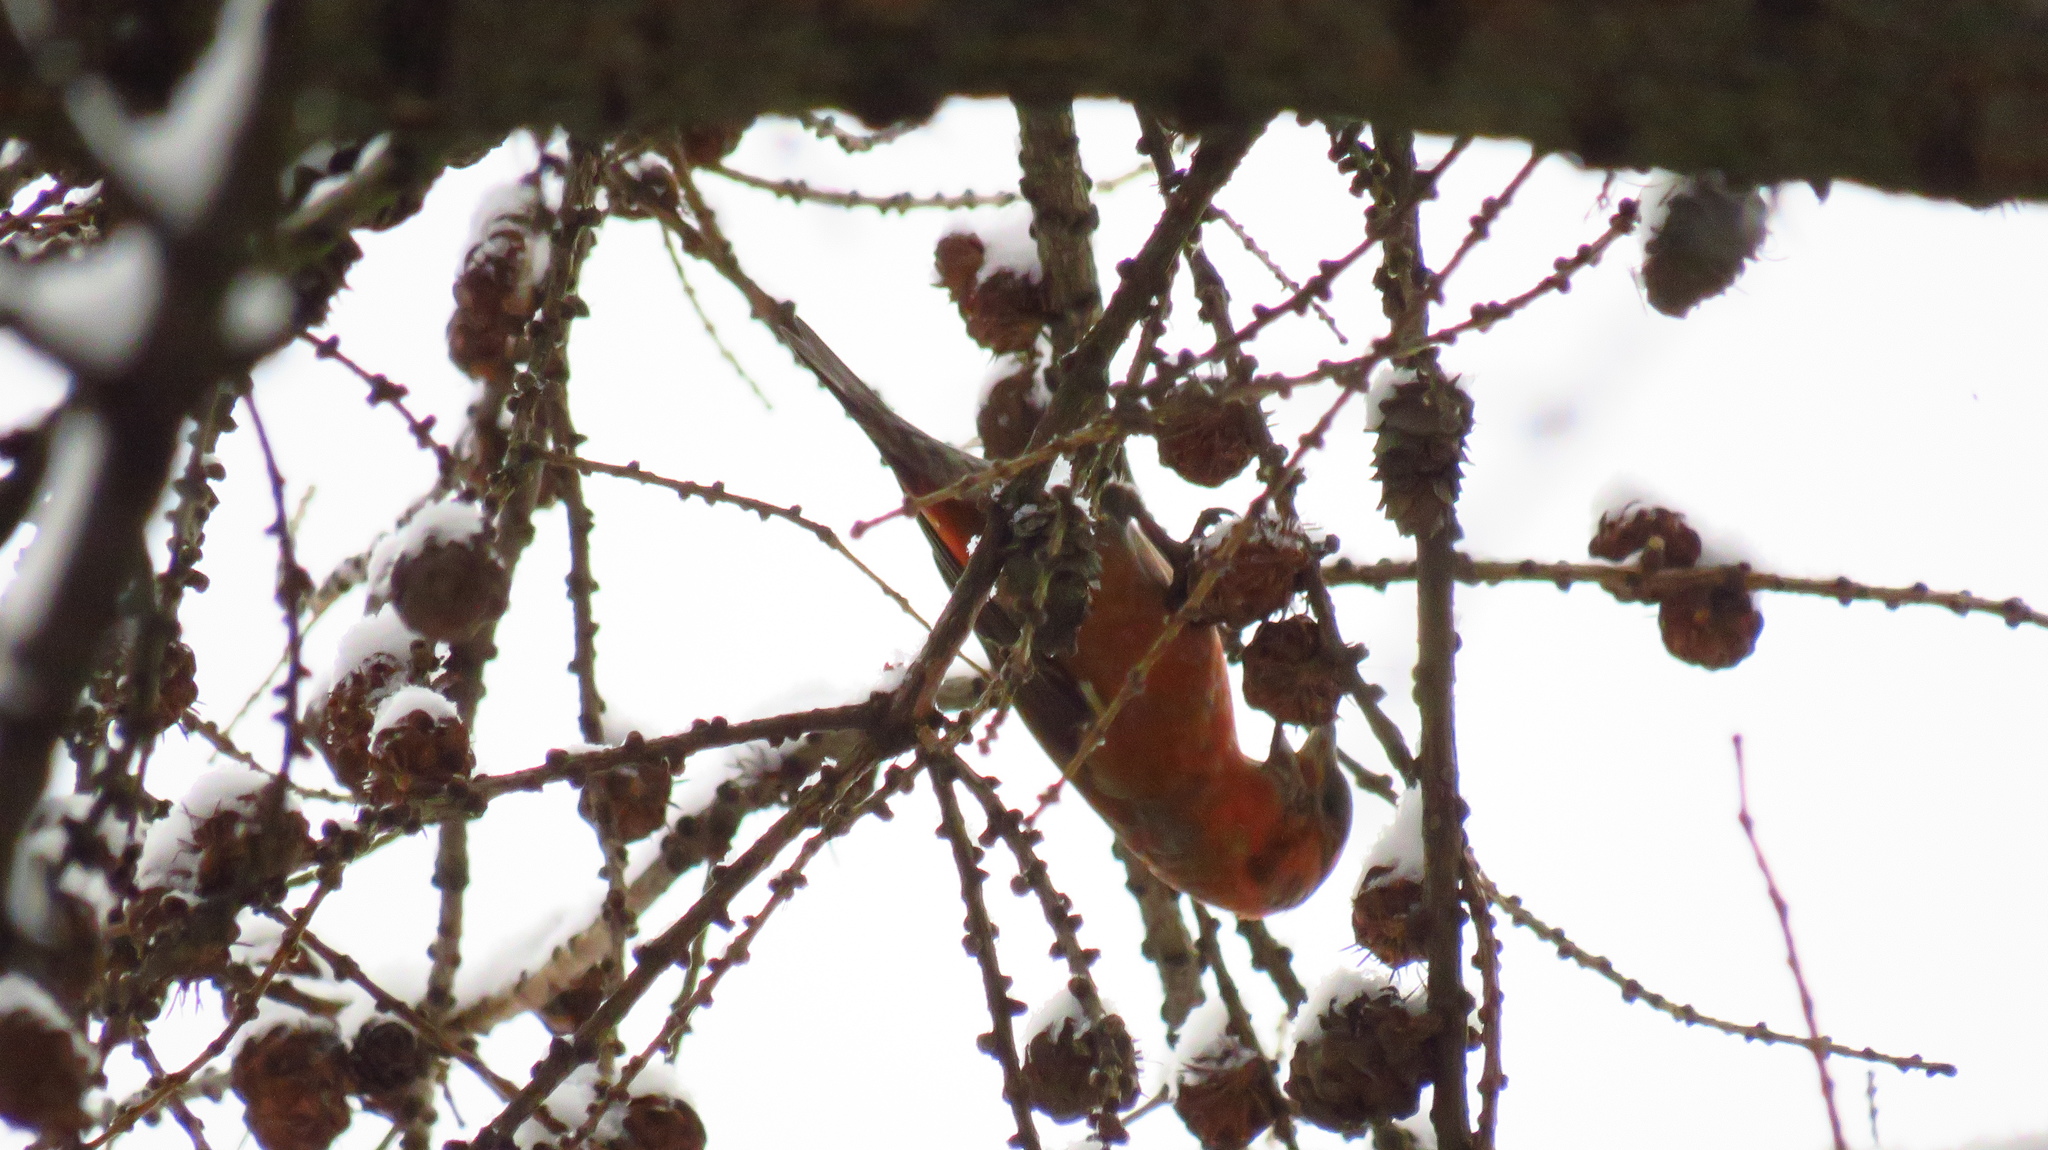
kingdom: Animalia
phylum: Chordata
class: Aves
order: Passeriformes
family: Fringillidae
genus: Loxia
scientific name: Loxia curvirostra
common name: Red crossbill
